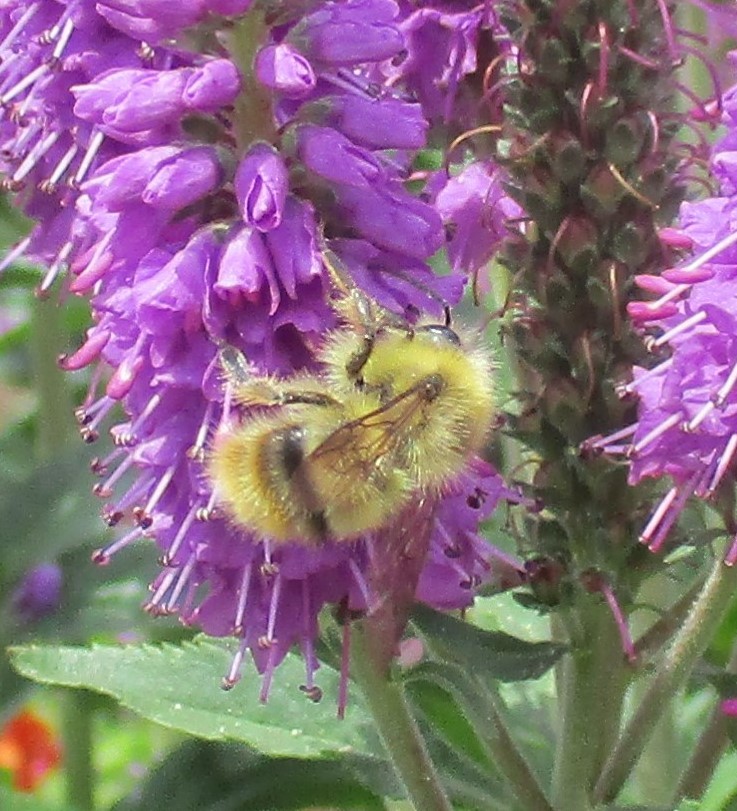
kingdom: Animalia
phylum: Arthropoda
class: Insecta
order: Hymenoptera
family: Apidae
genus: Bombus
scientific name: Bombus mixtus
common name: Fuzzy-horned bumble bee
